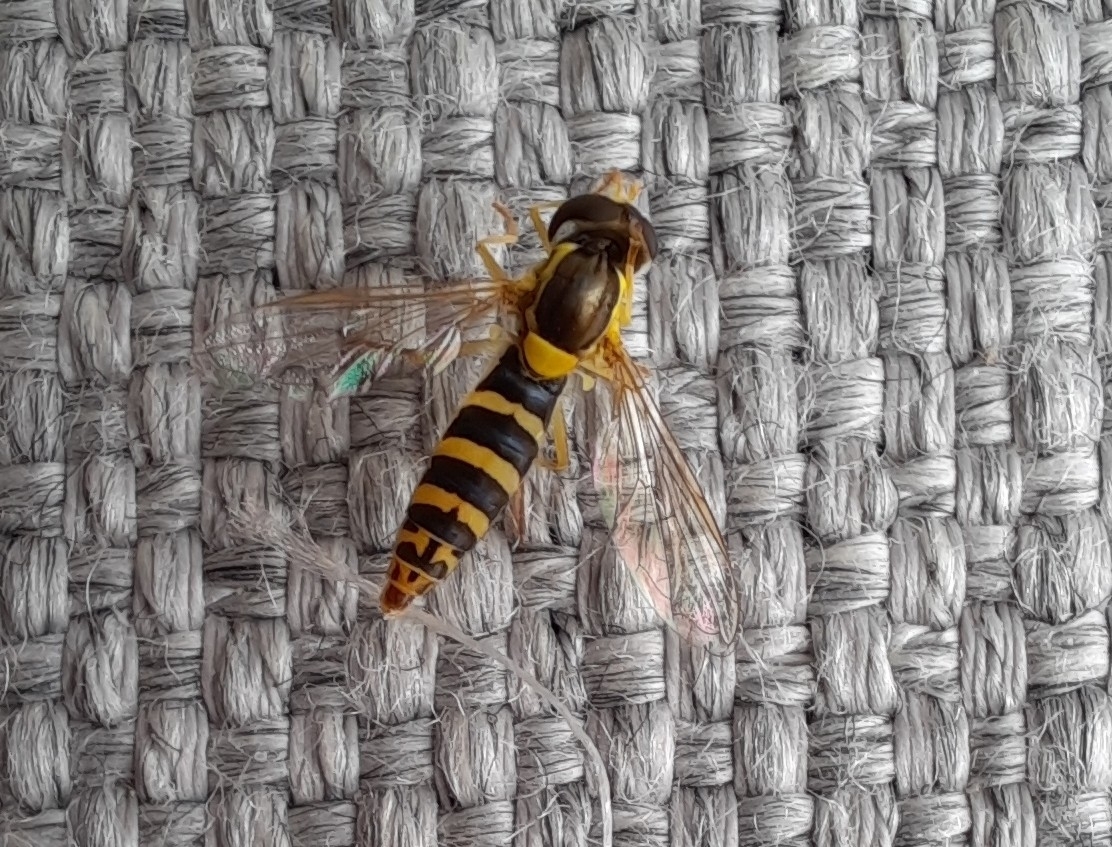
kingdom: Animalia
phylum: Arthropoda
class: Insecta
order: Diptera
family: Syrphidae
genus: Sphaerophoria
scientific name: Sphaerophoria
